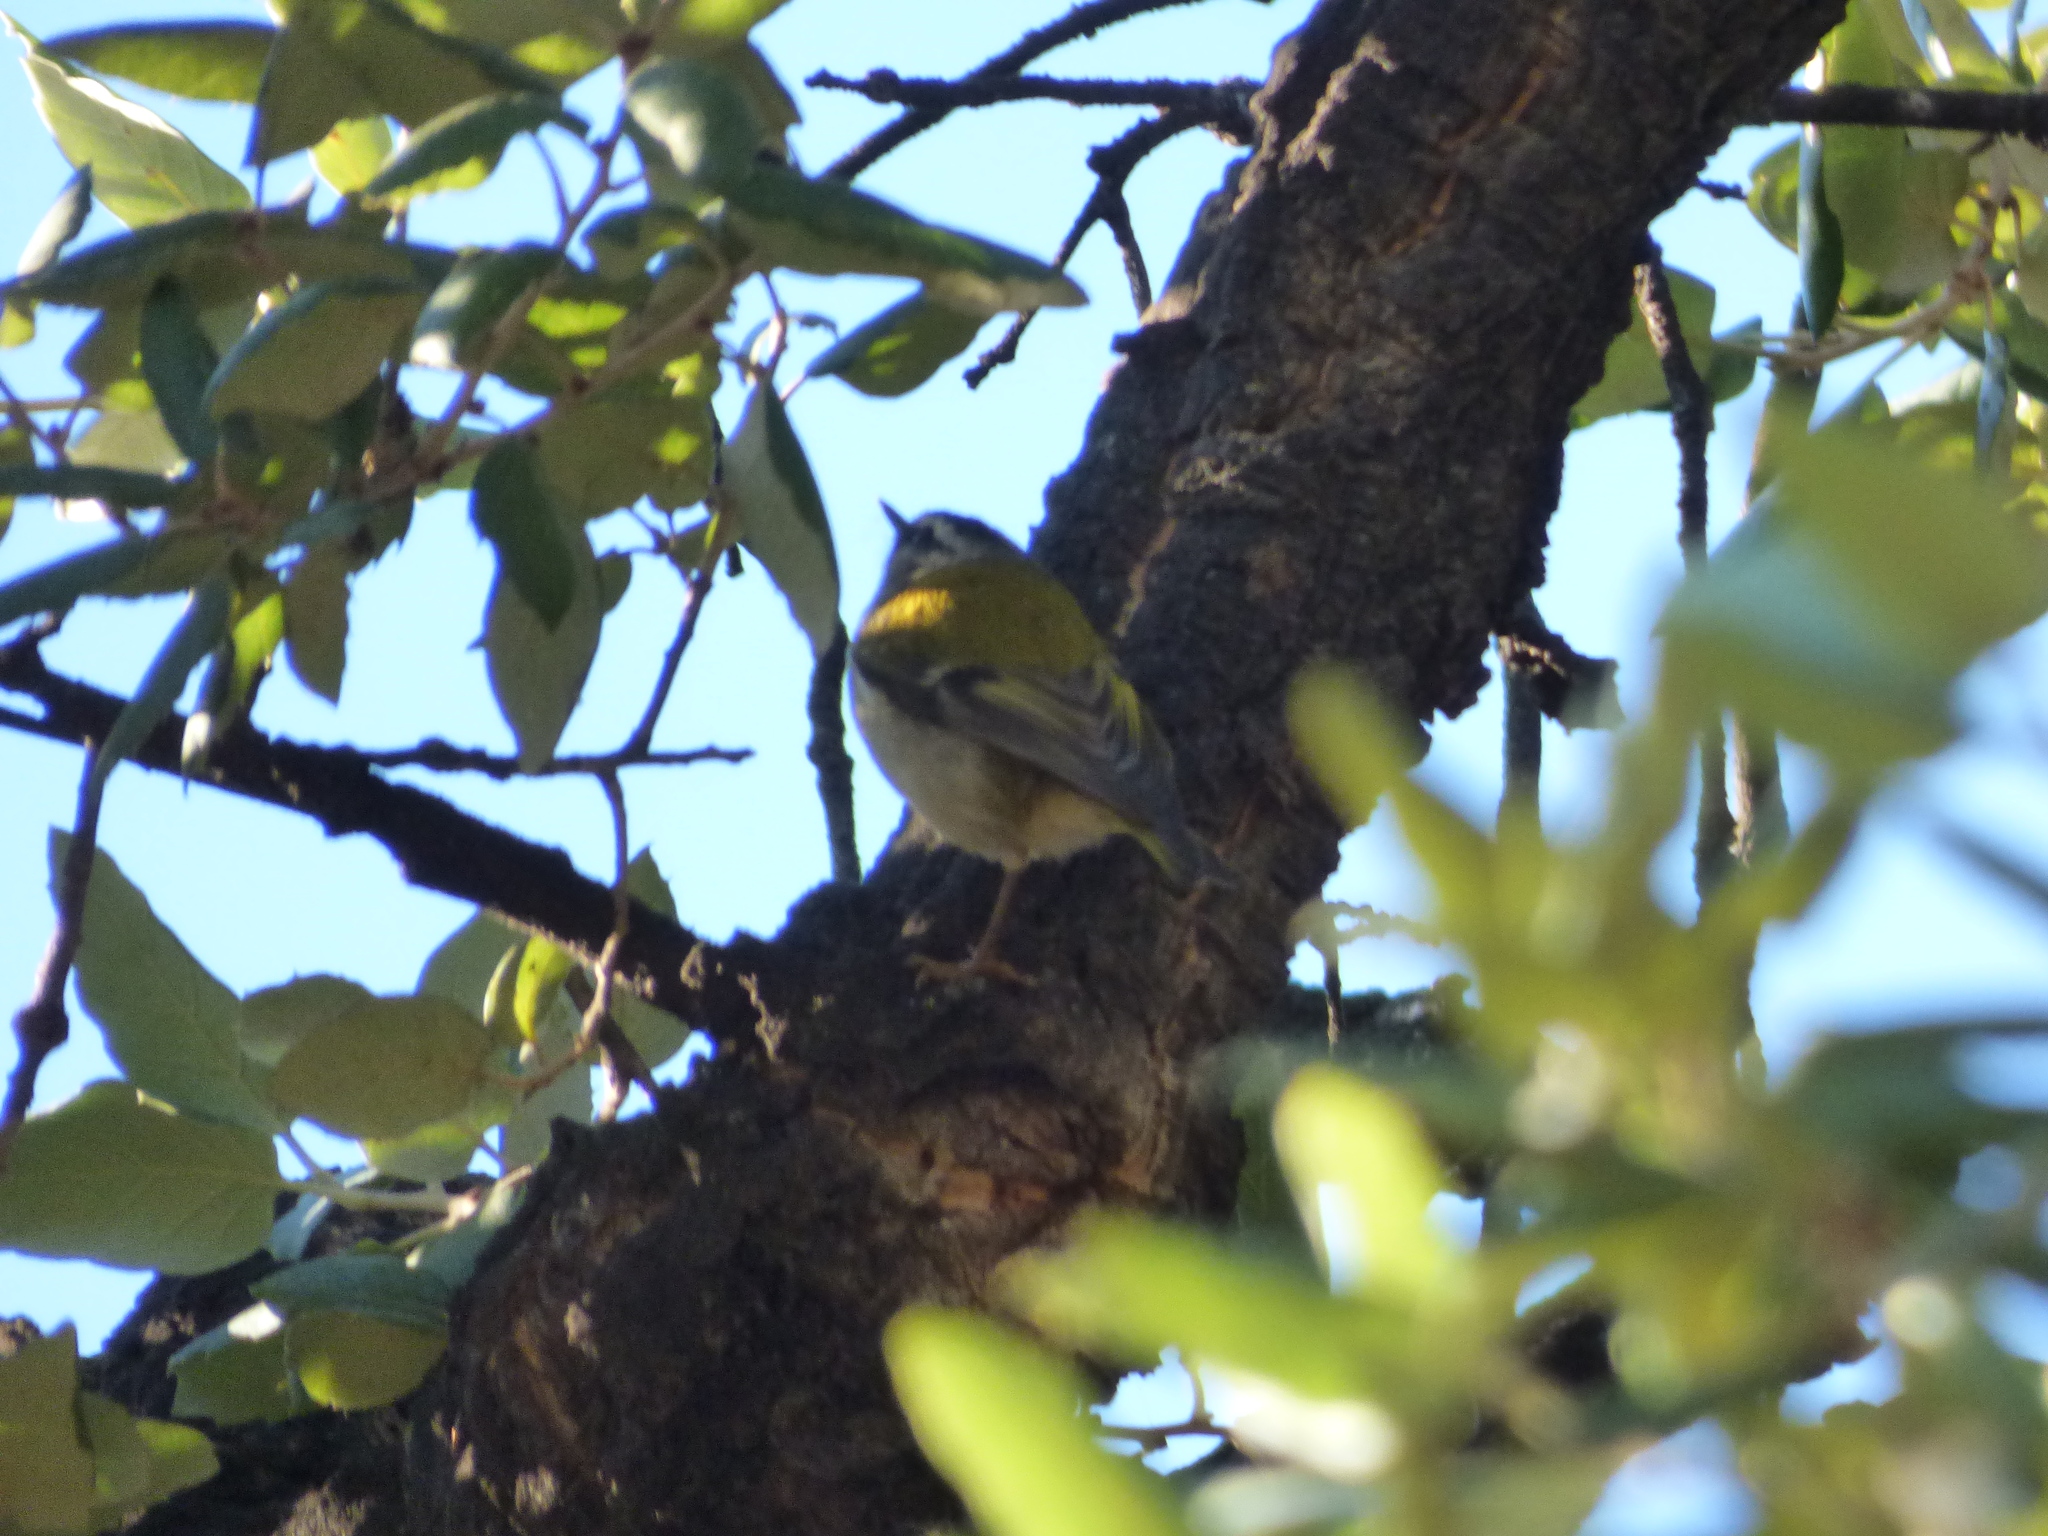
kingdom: Animalia
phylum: Chordata
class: Aves
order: Passeriformes
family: Regulidae
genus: Regulus
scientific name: Regulus ignicapilla
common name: Firecrest
